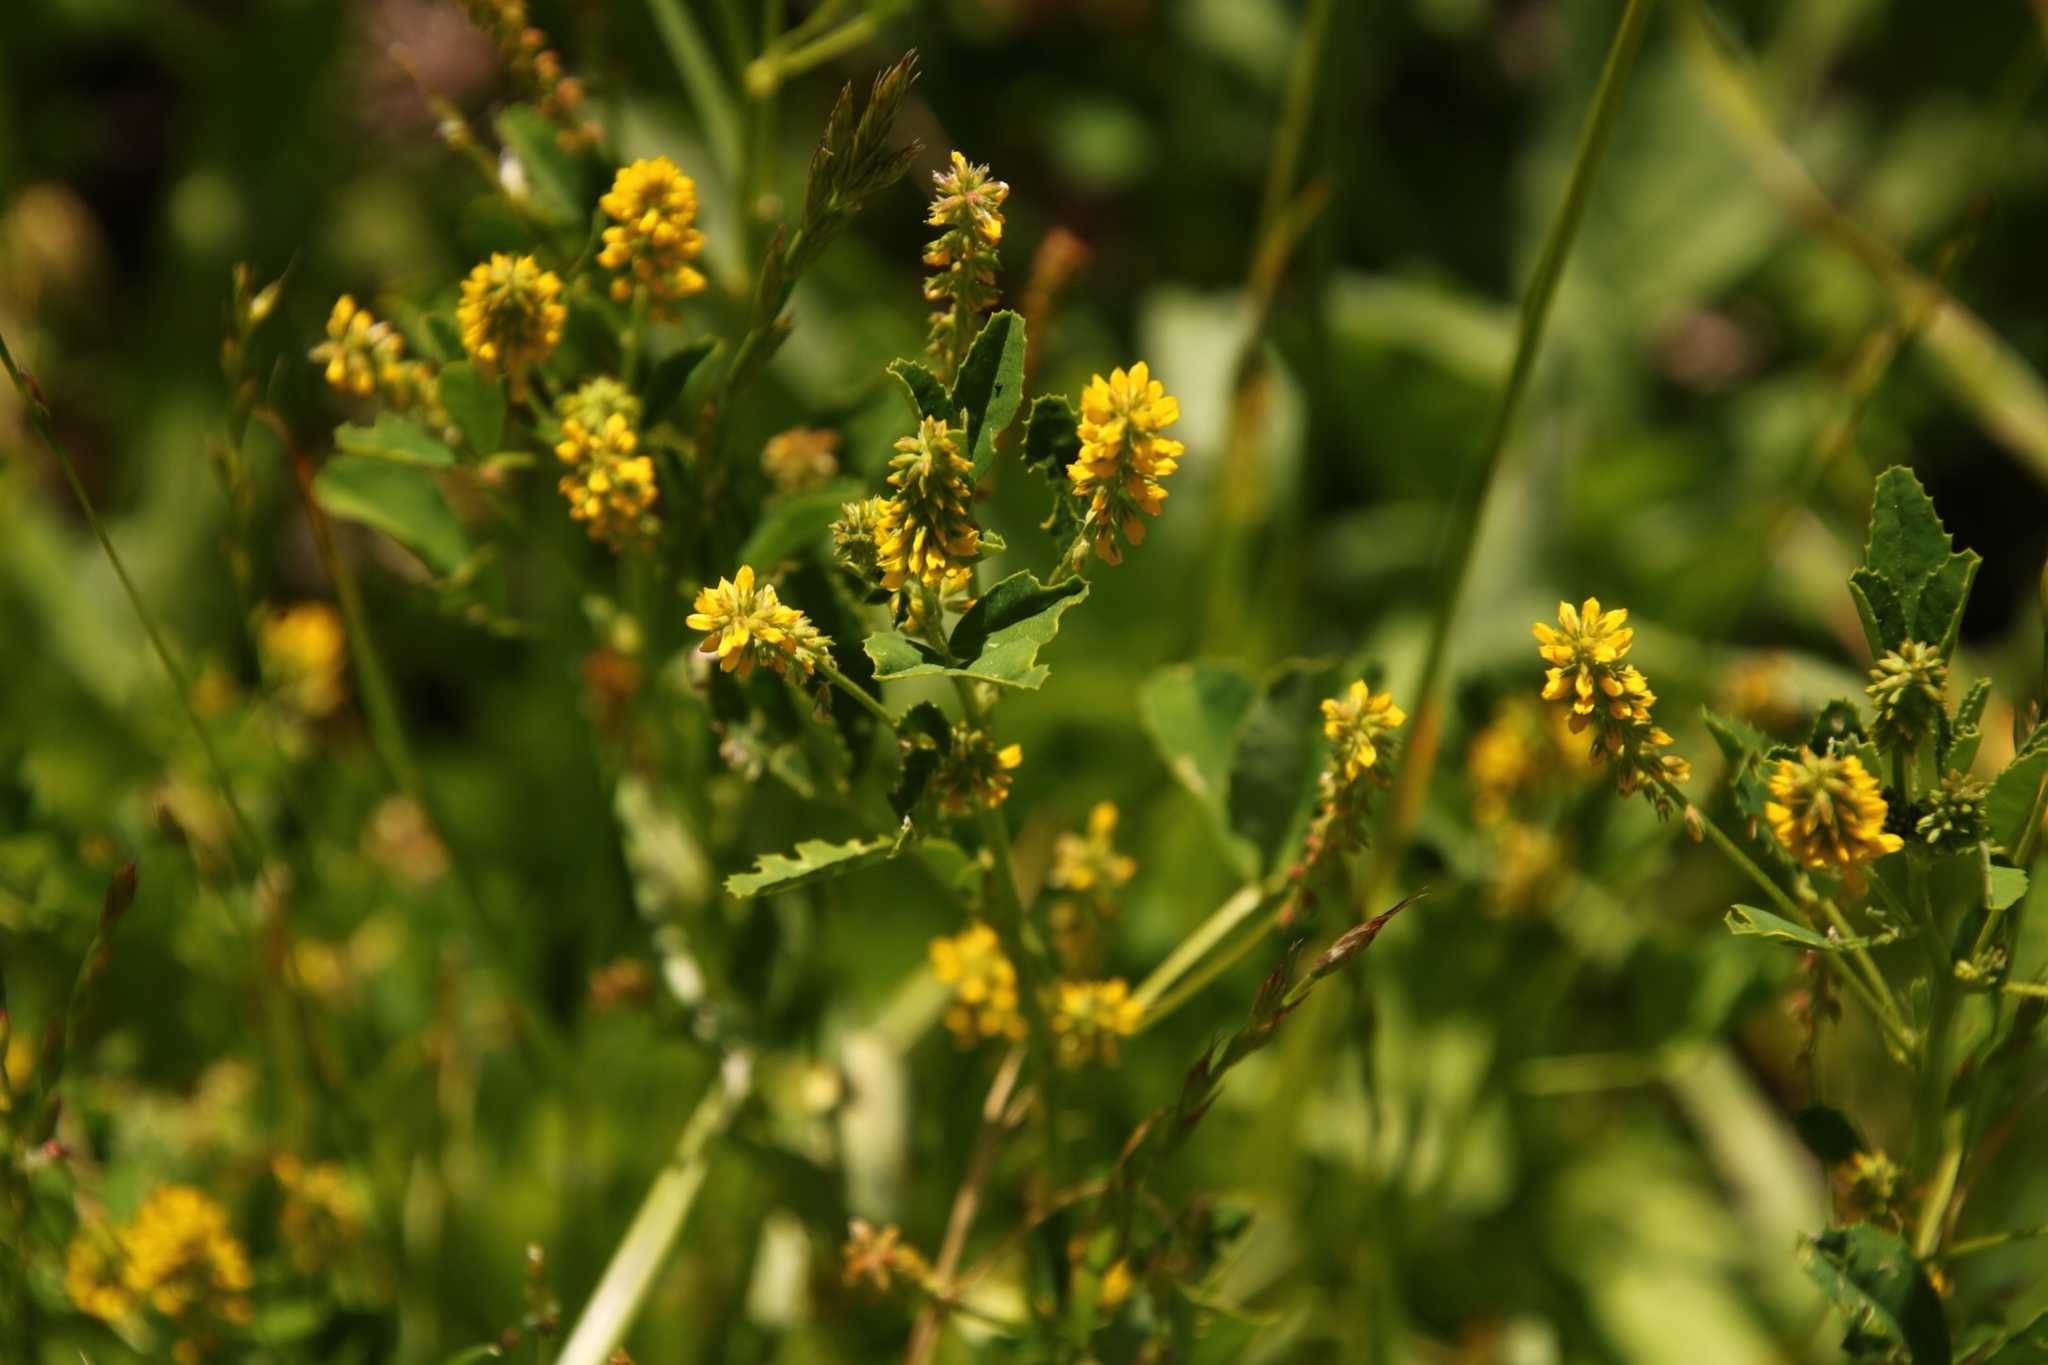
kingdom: Plantae
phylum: Tracheophyta
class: Magnoliopsida
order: Fabales
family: Fabaceae
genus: Melilotus
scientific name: Melilotus indicus
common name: Small melilot
